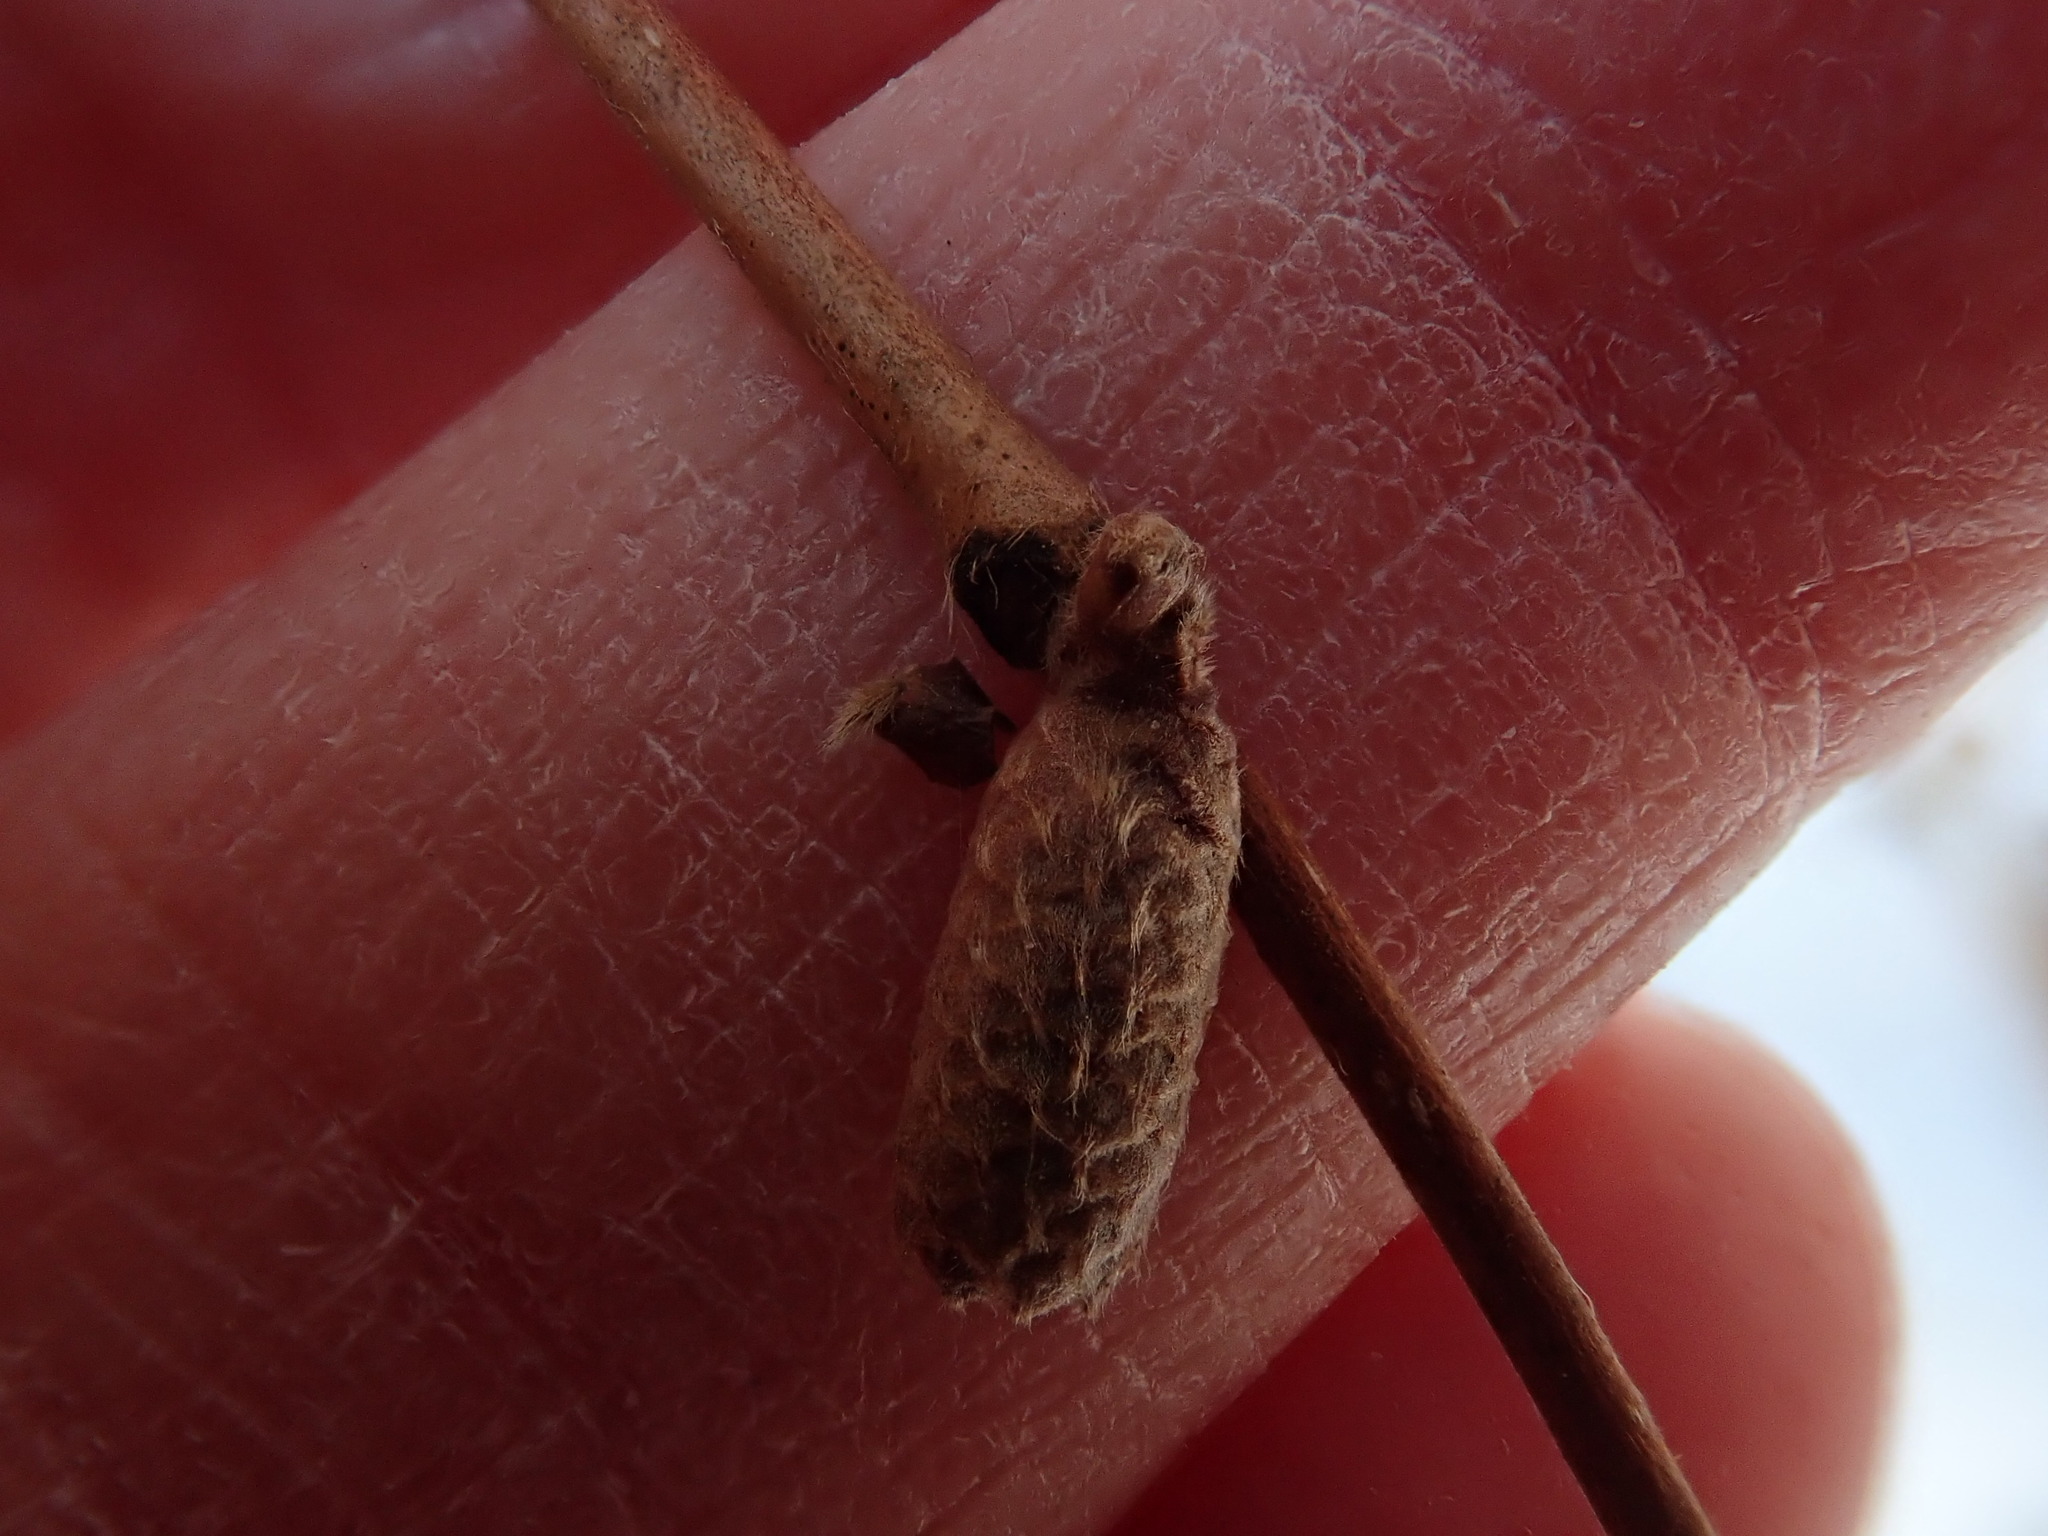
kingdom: Plantae
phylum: Tracheophyta
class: Magnoliopsida
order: Fagales
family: Betulaceae
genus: Corylus
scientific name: Corylus cornuta
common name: Beaked hazel
